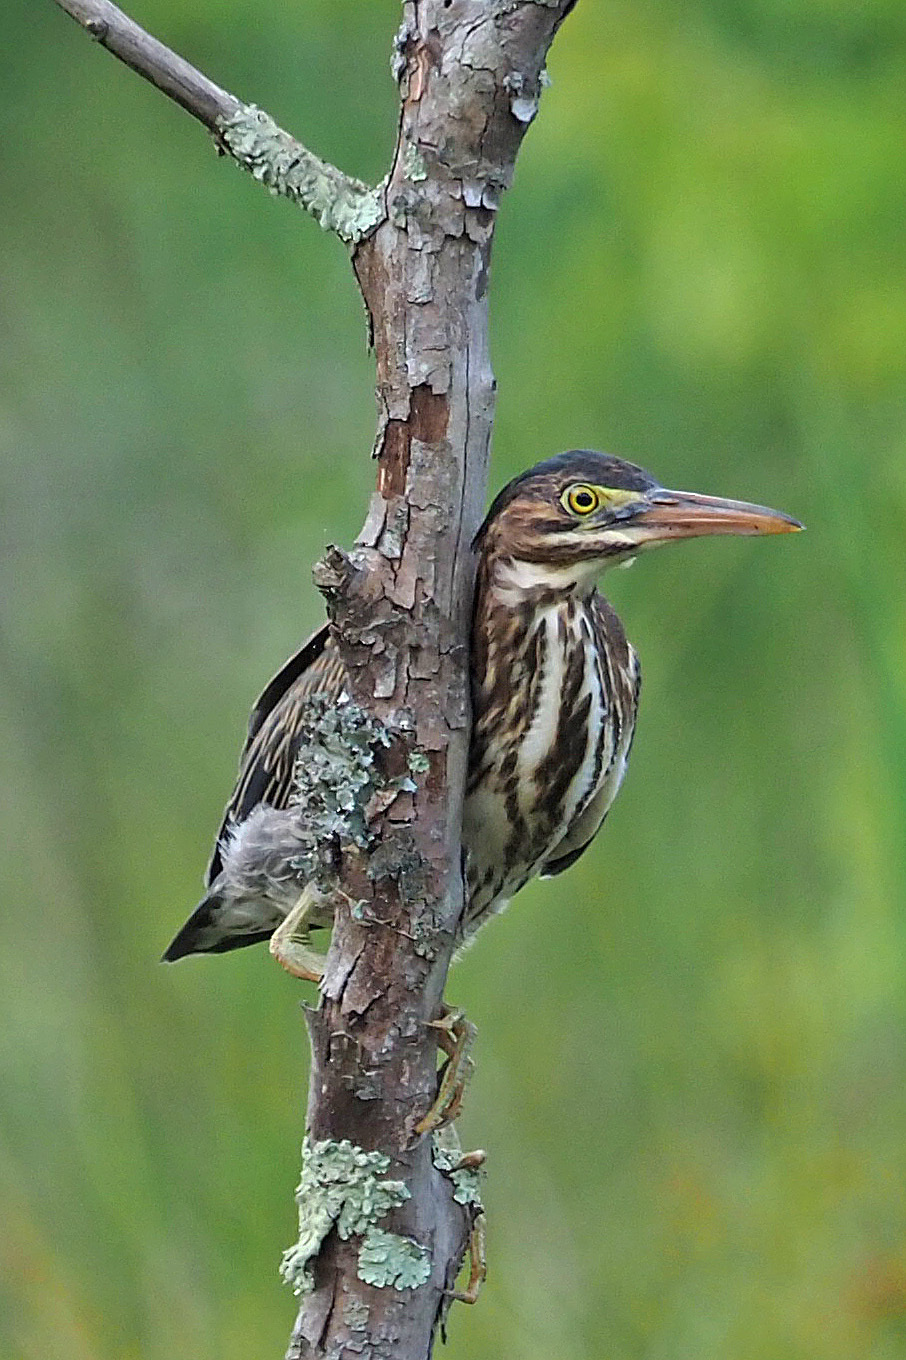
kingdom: Animalia
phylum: Chordata
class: Aves
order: Pelecaniformes
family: Ardeidae
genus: Butorides
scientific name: Butorides virescens
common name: Green heron
